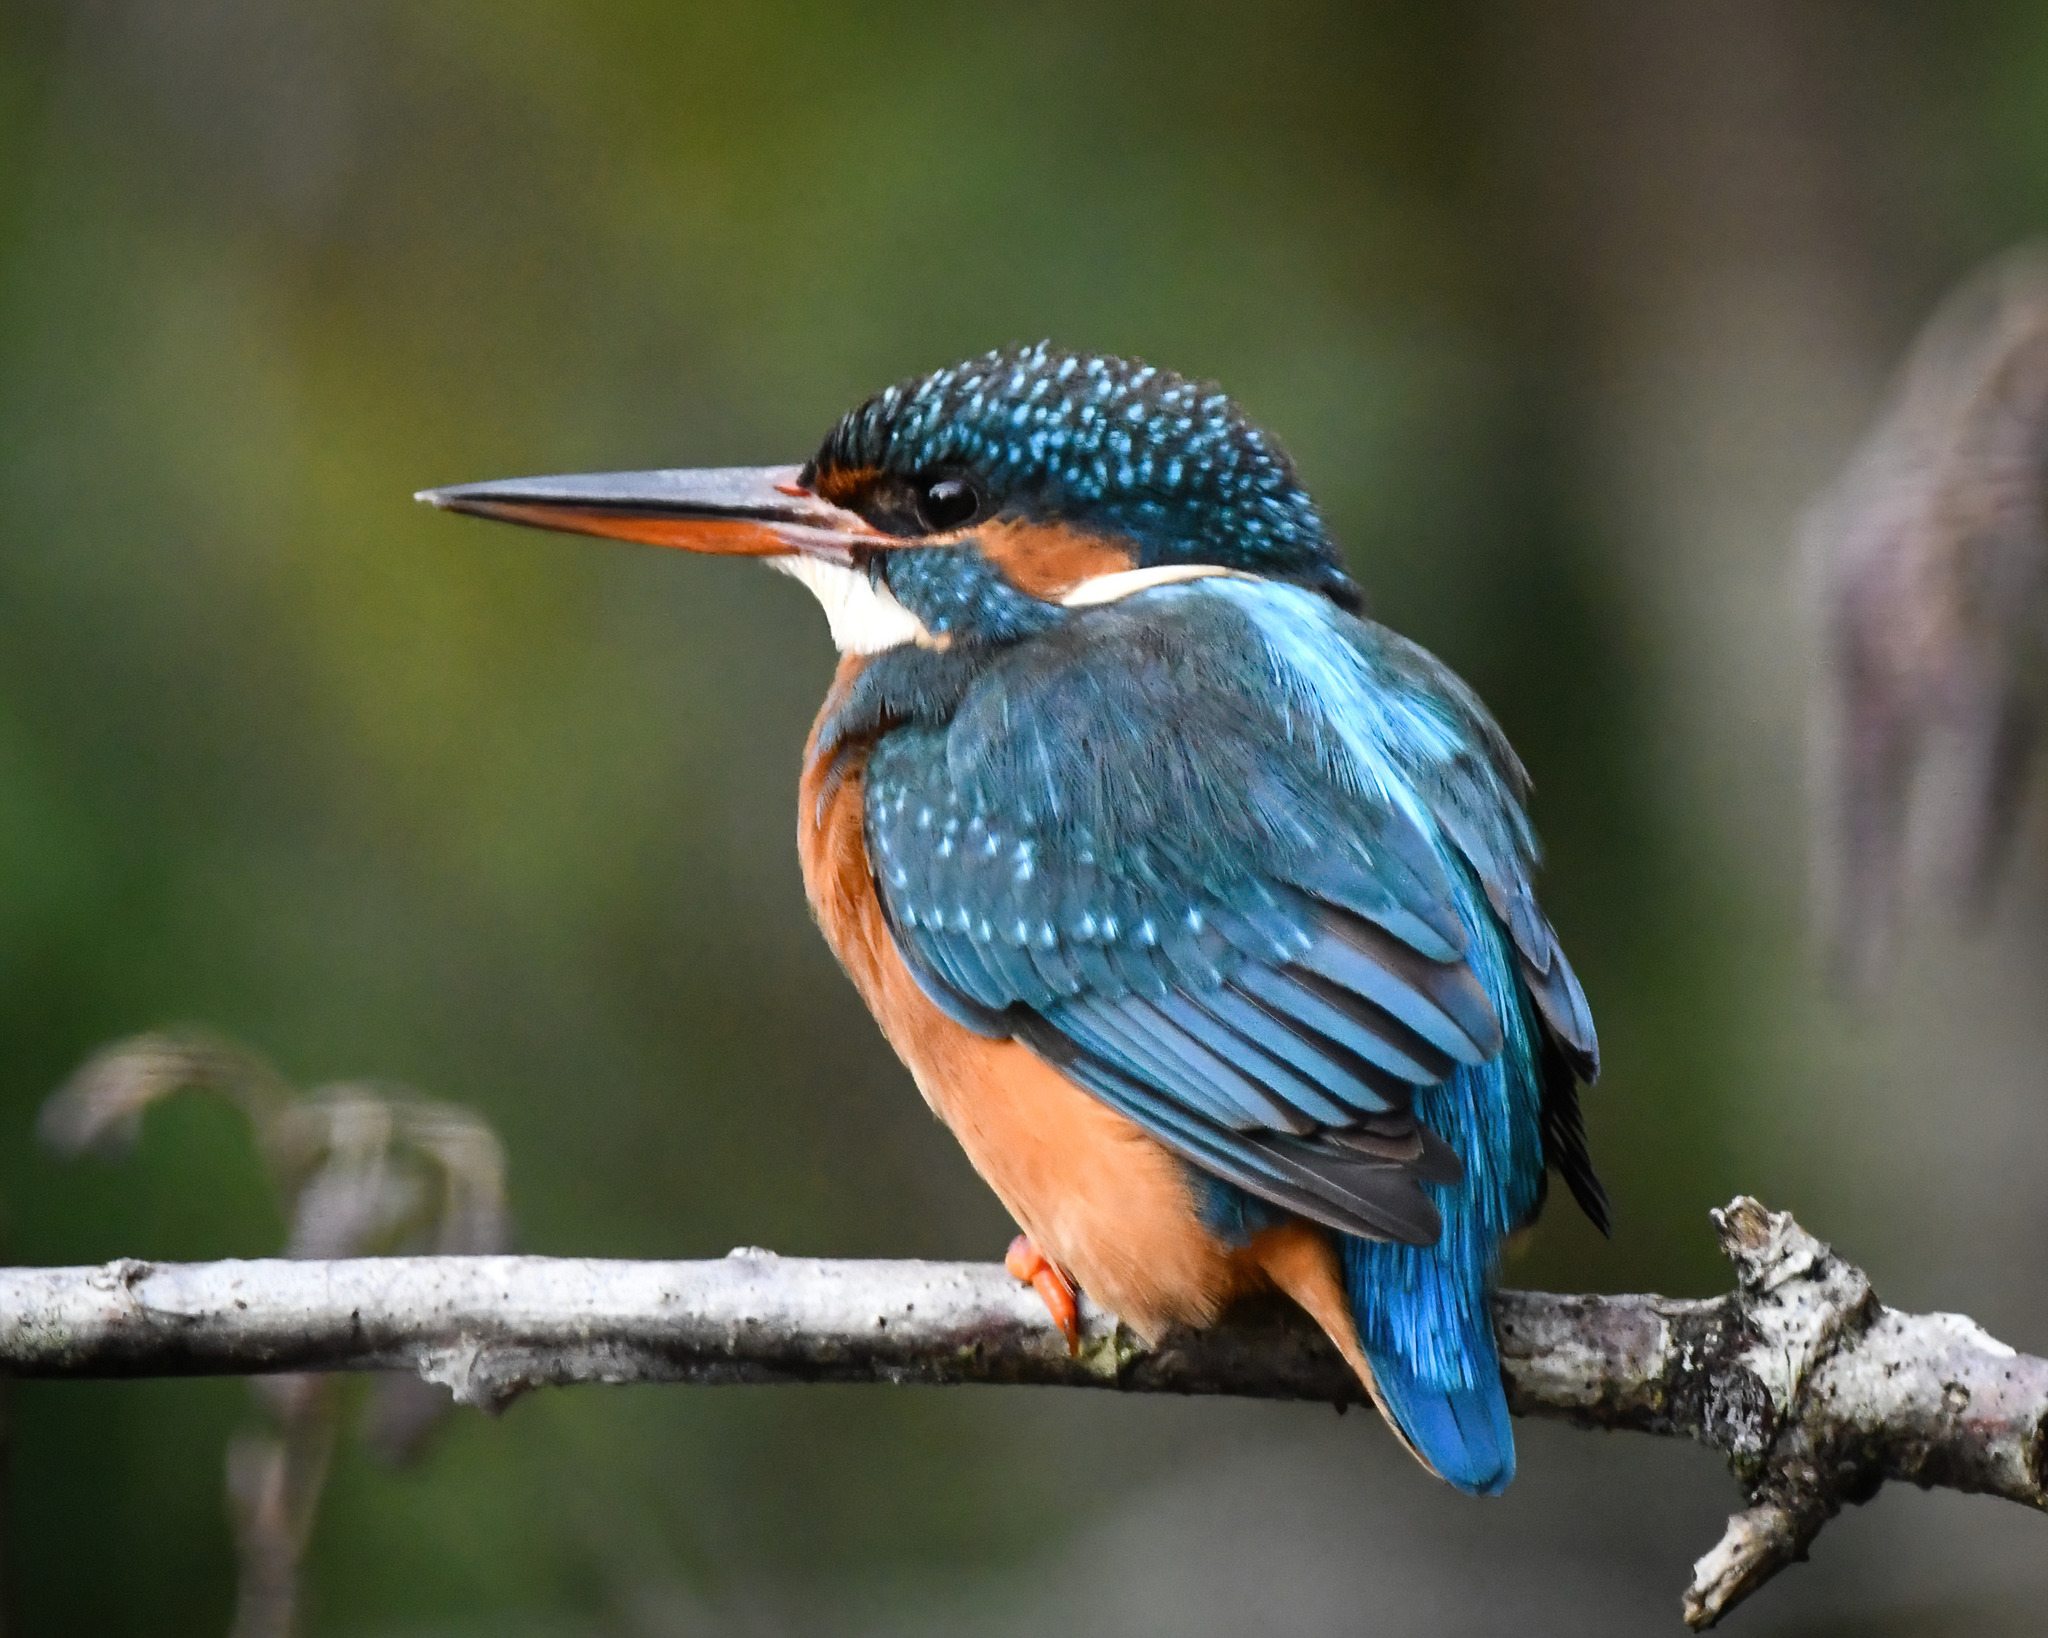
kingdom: Animalia
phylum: Chordata
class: Aves
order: Coraciiformes
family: Alcedinidae
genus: Alcedo
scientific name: Alcedo atthis
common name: Common kingfisher
